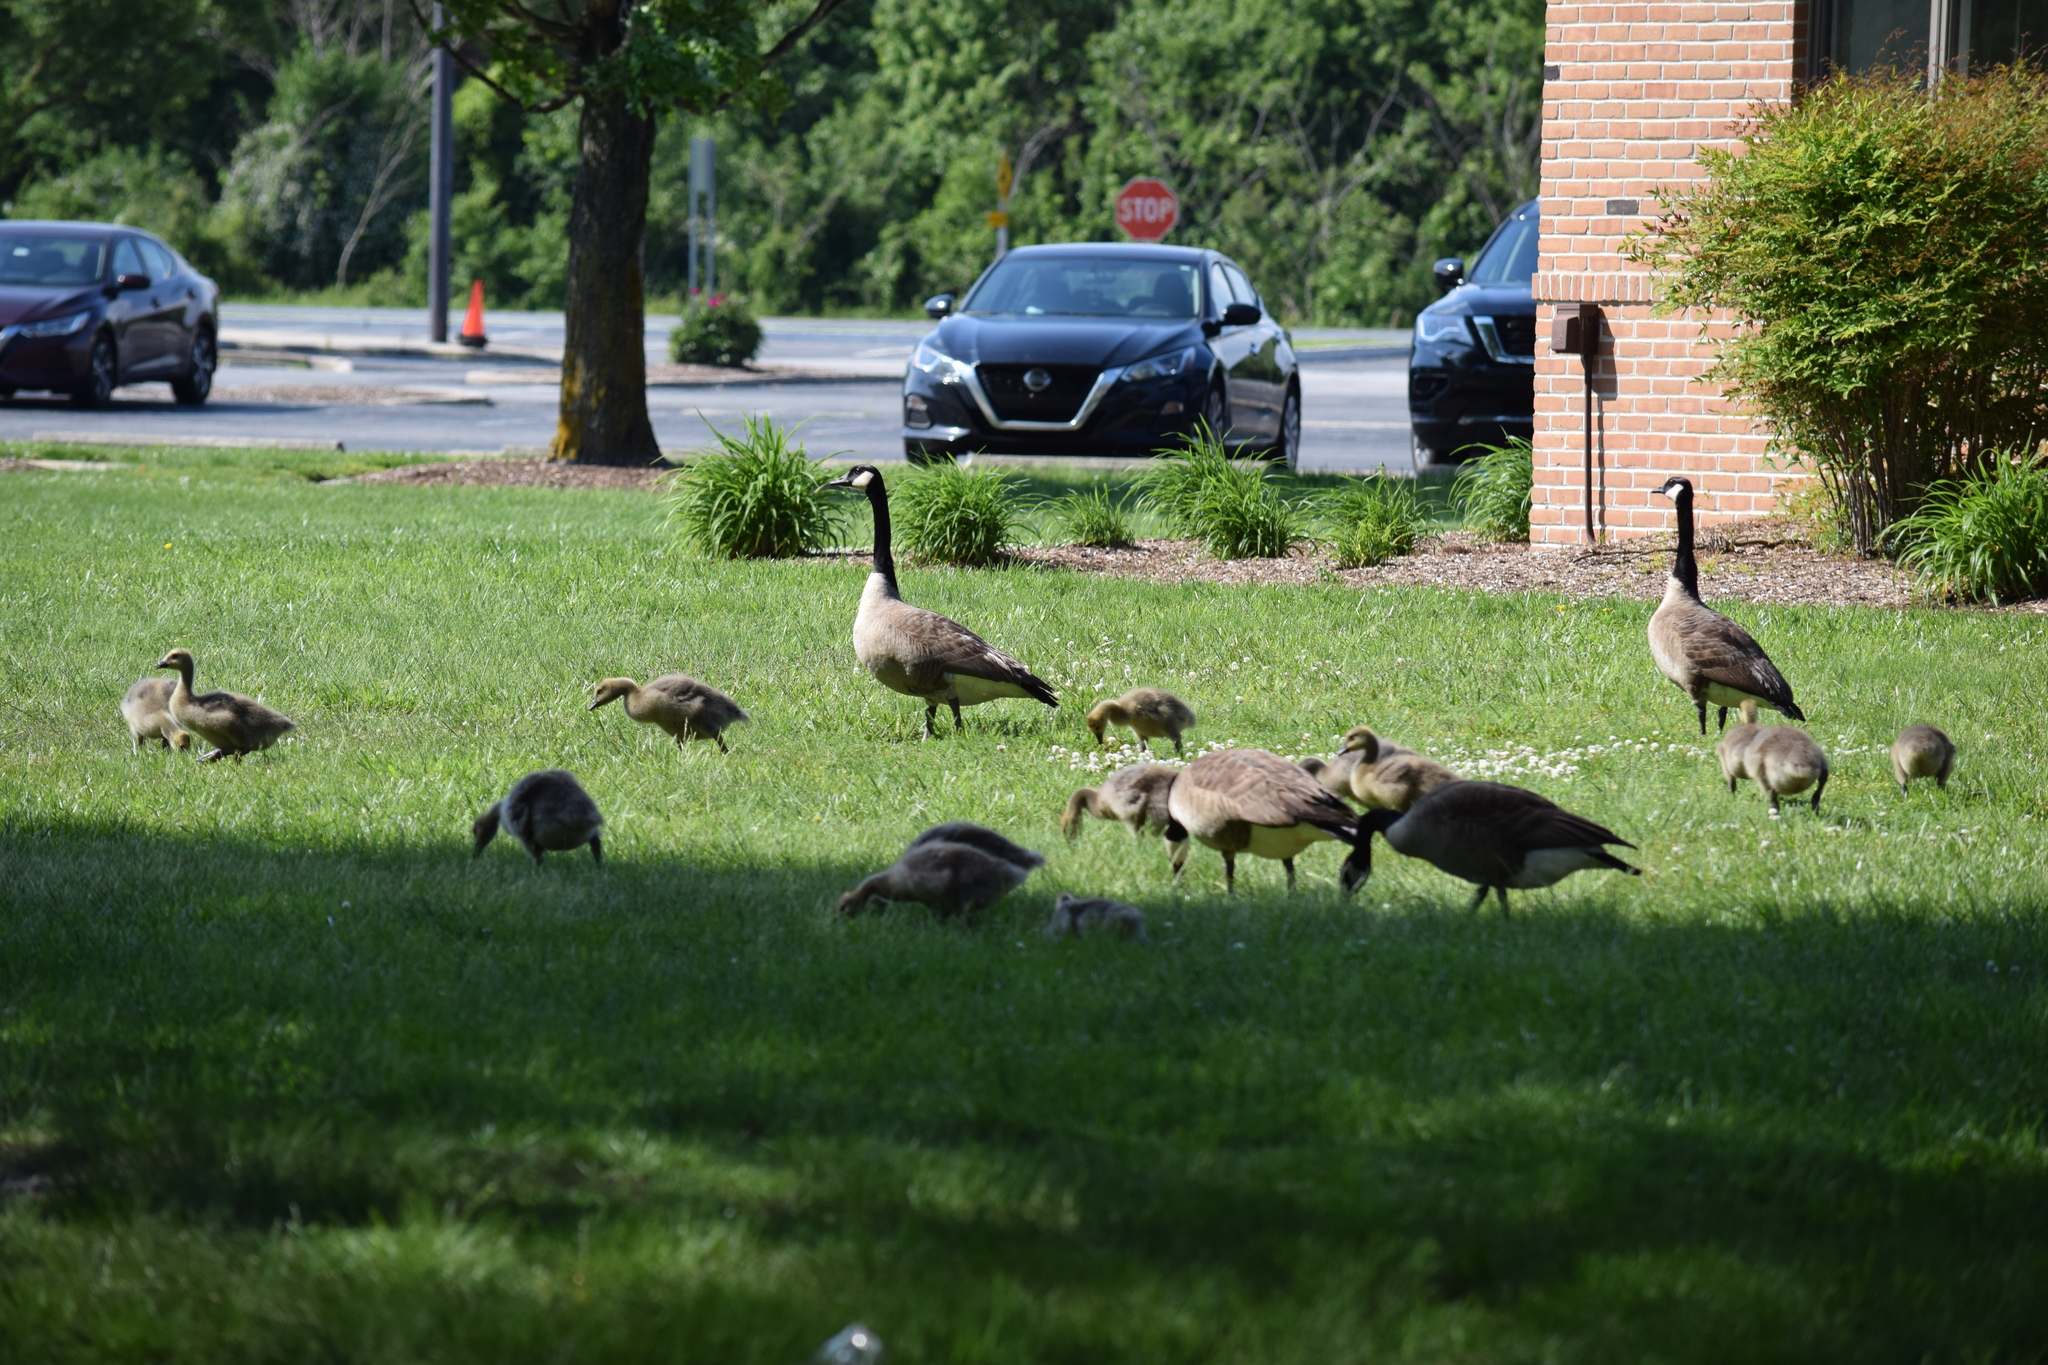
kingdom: Animalia
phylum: Chordata
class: Aves
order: Anseriformes
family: Anatidae
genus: Branta
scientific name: Branta canadensis
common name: Canada goose
